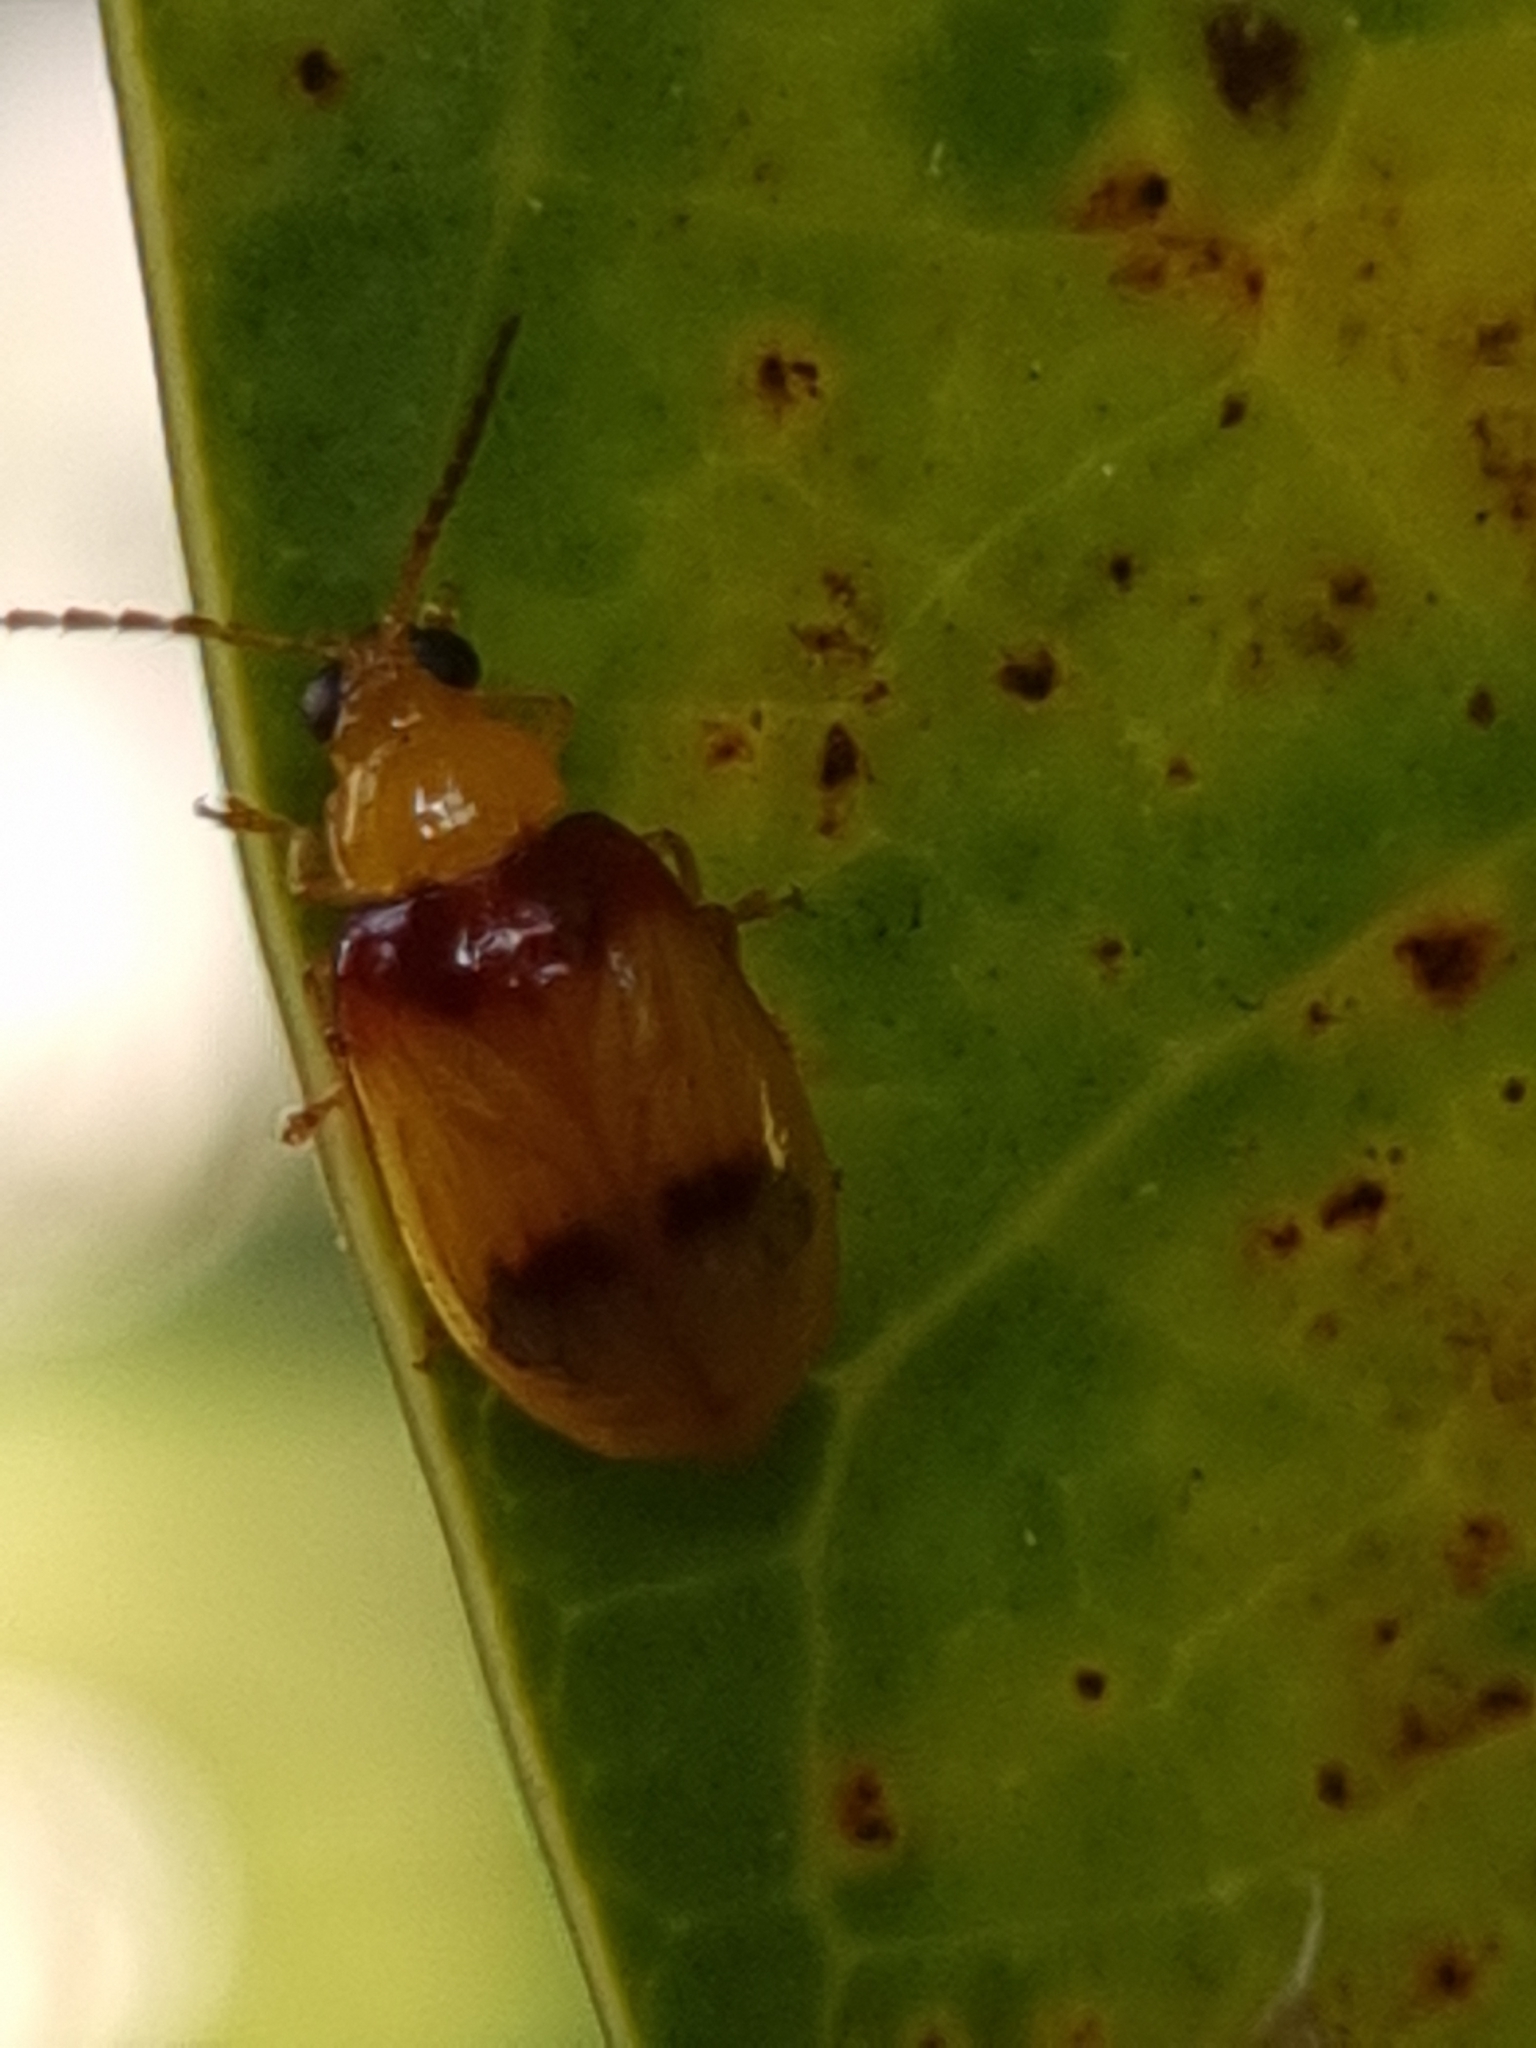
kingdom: Animalia
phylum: Arthropoda
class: Insecta
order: Coleoptera
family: Chrysomelidae
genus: Monolepta
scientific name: Monolepta
